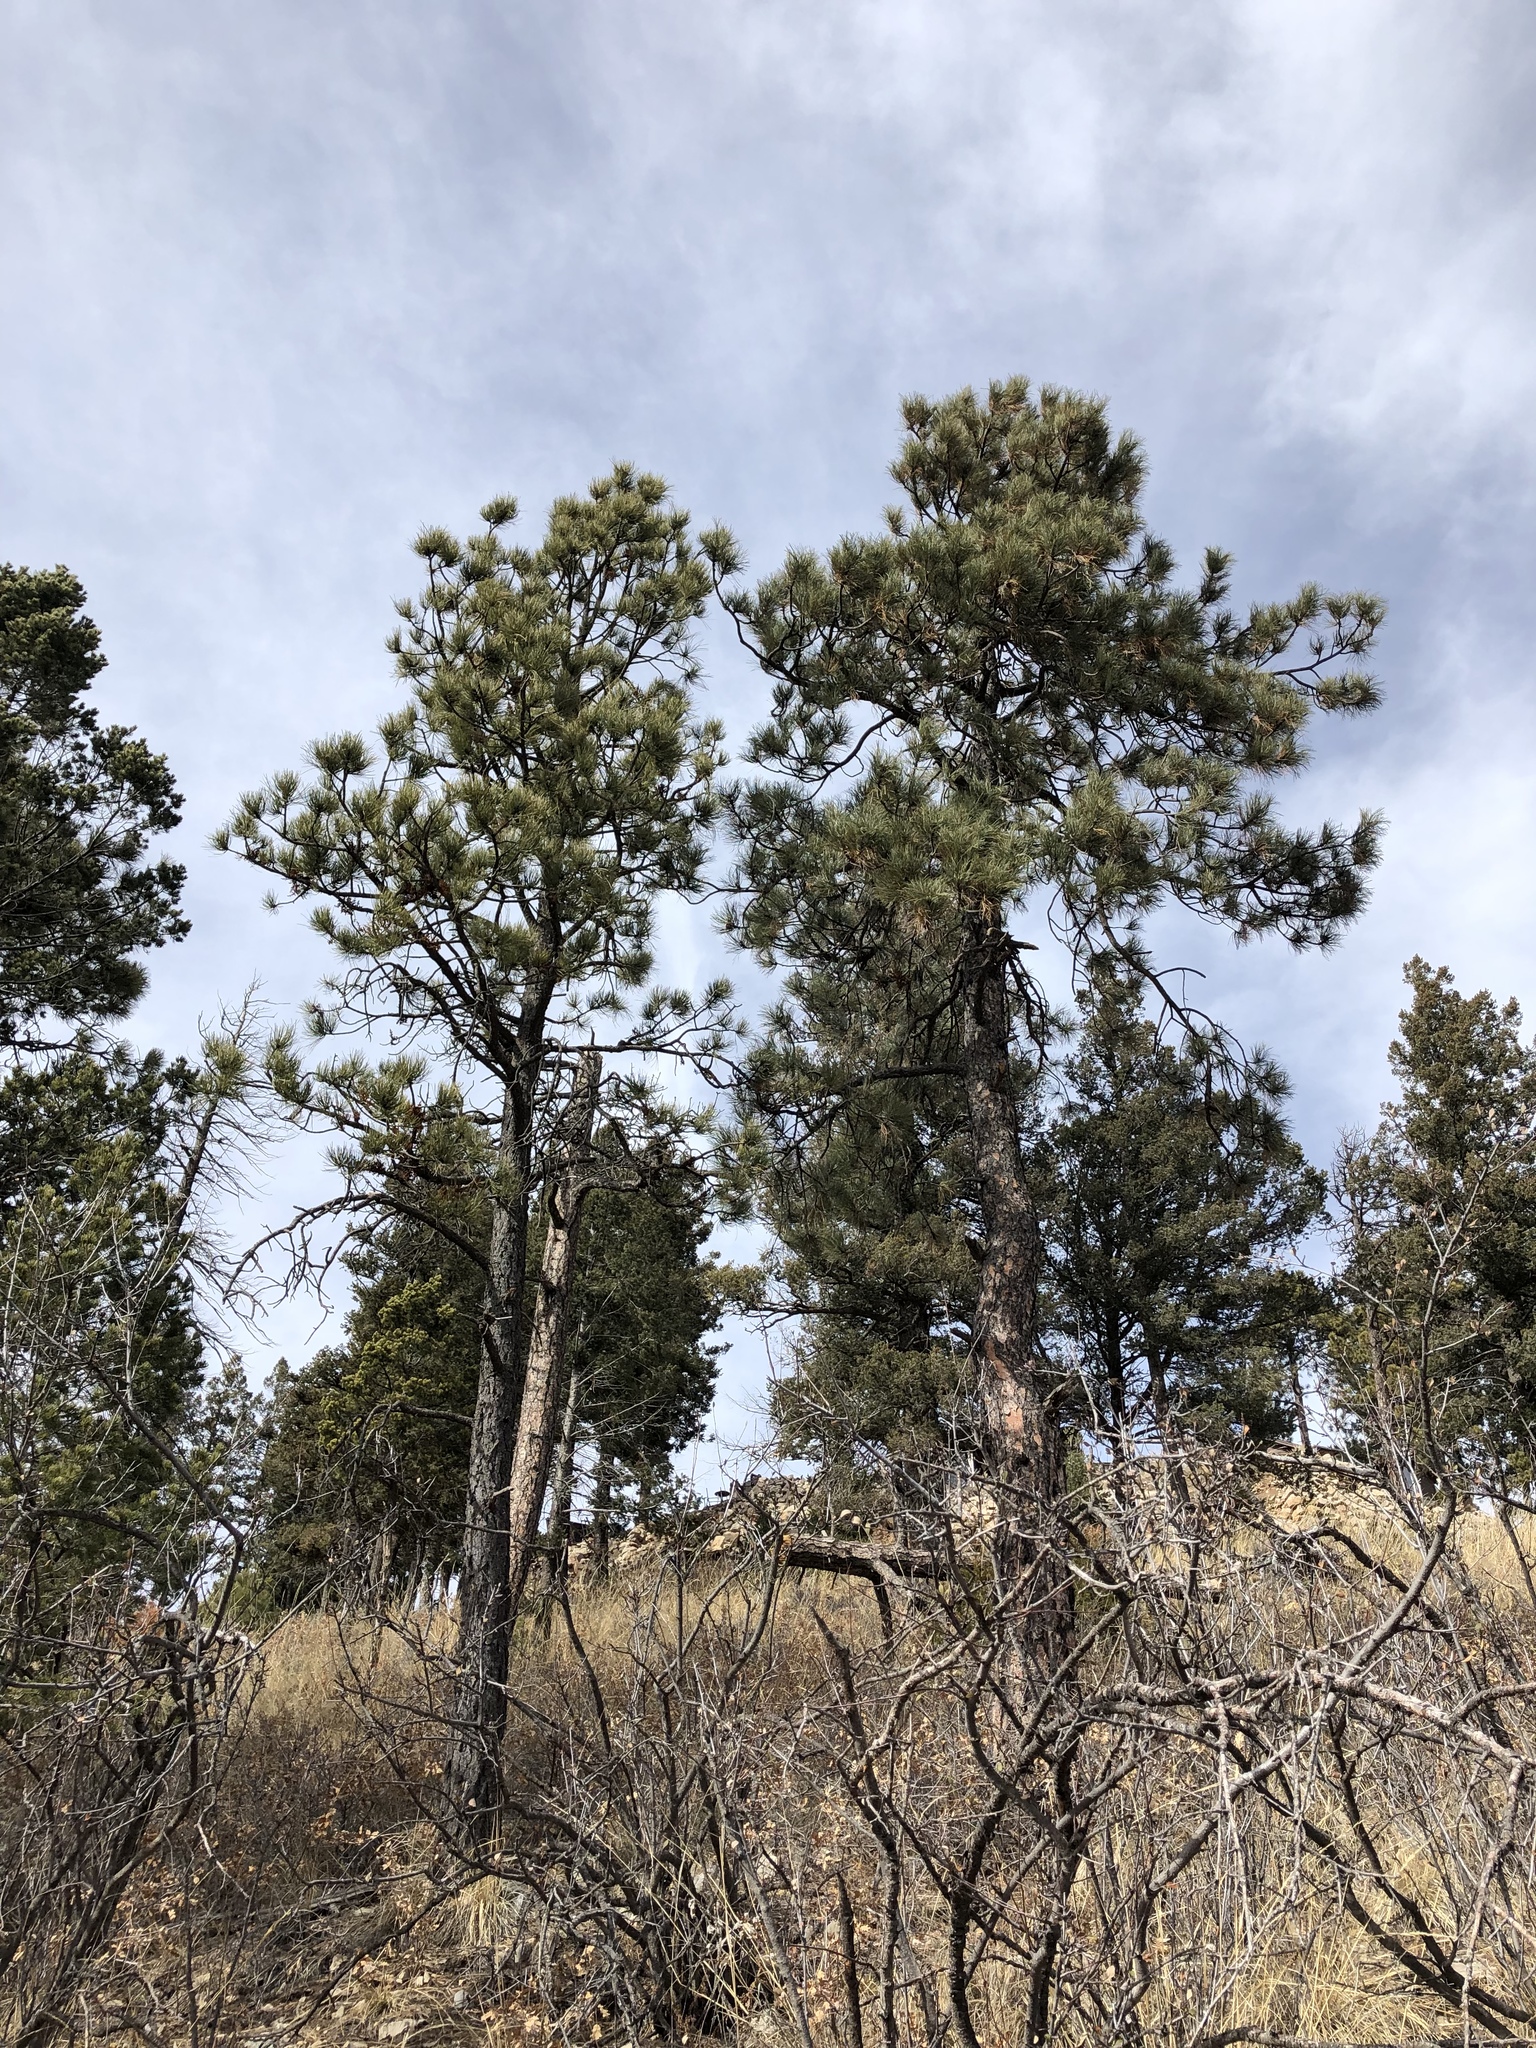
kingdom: Plantae
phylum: Tracheophyta
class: Pinopsida
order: Pinales
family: Pinaceae
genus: Pinus
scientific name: Pinus ponderosa
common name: Western yellow-pine
